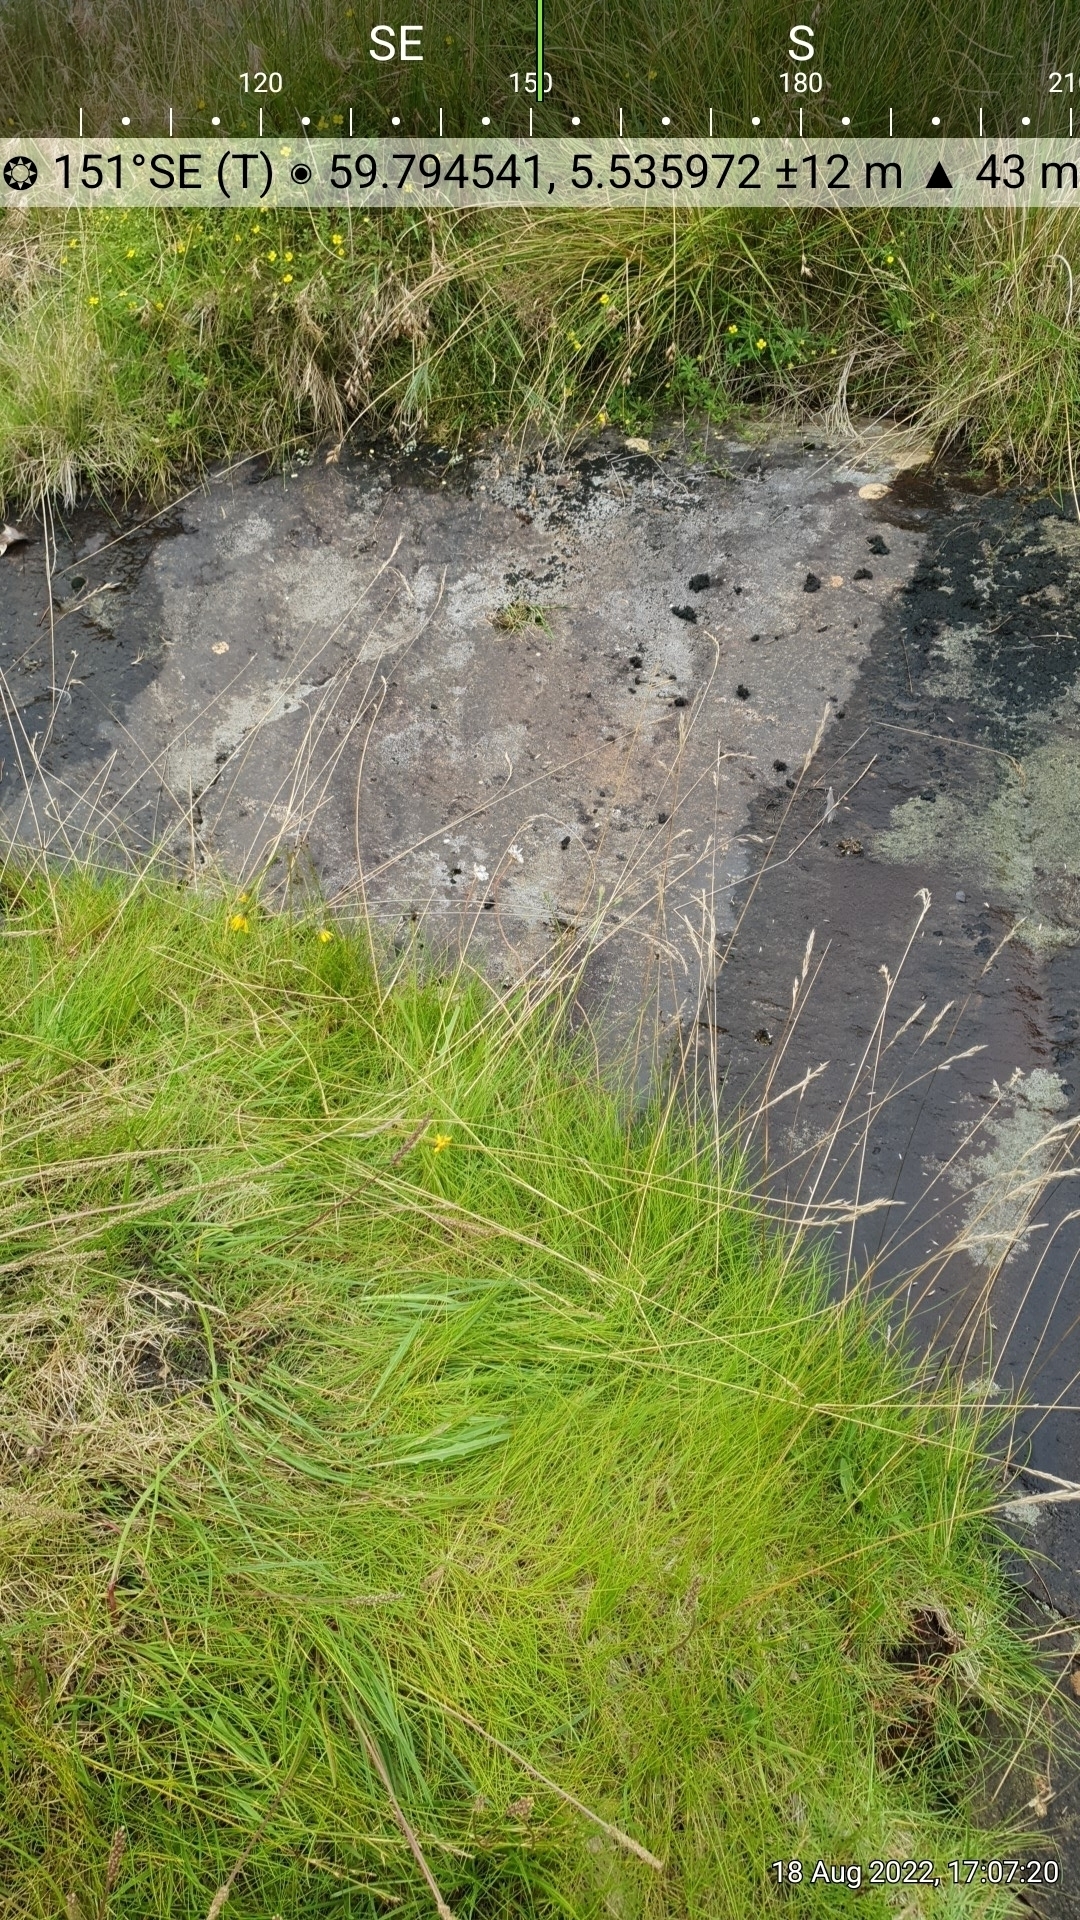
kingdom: Plantae
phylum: Tracheophyta
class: Magnoliopsida
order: Lamiales
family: Plantaginaceae
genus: Plantago
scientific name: Plantago maritima
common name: Sea plantain
